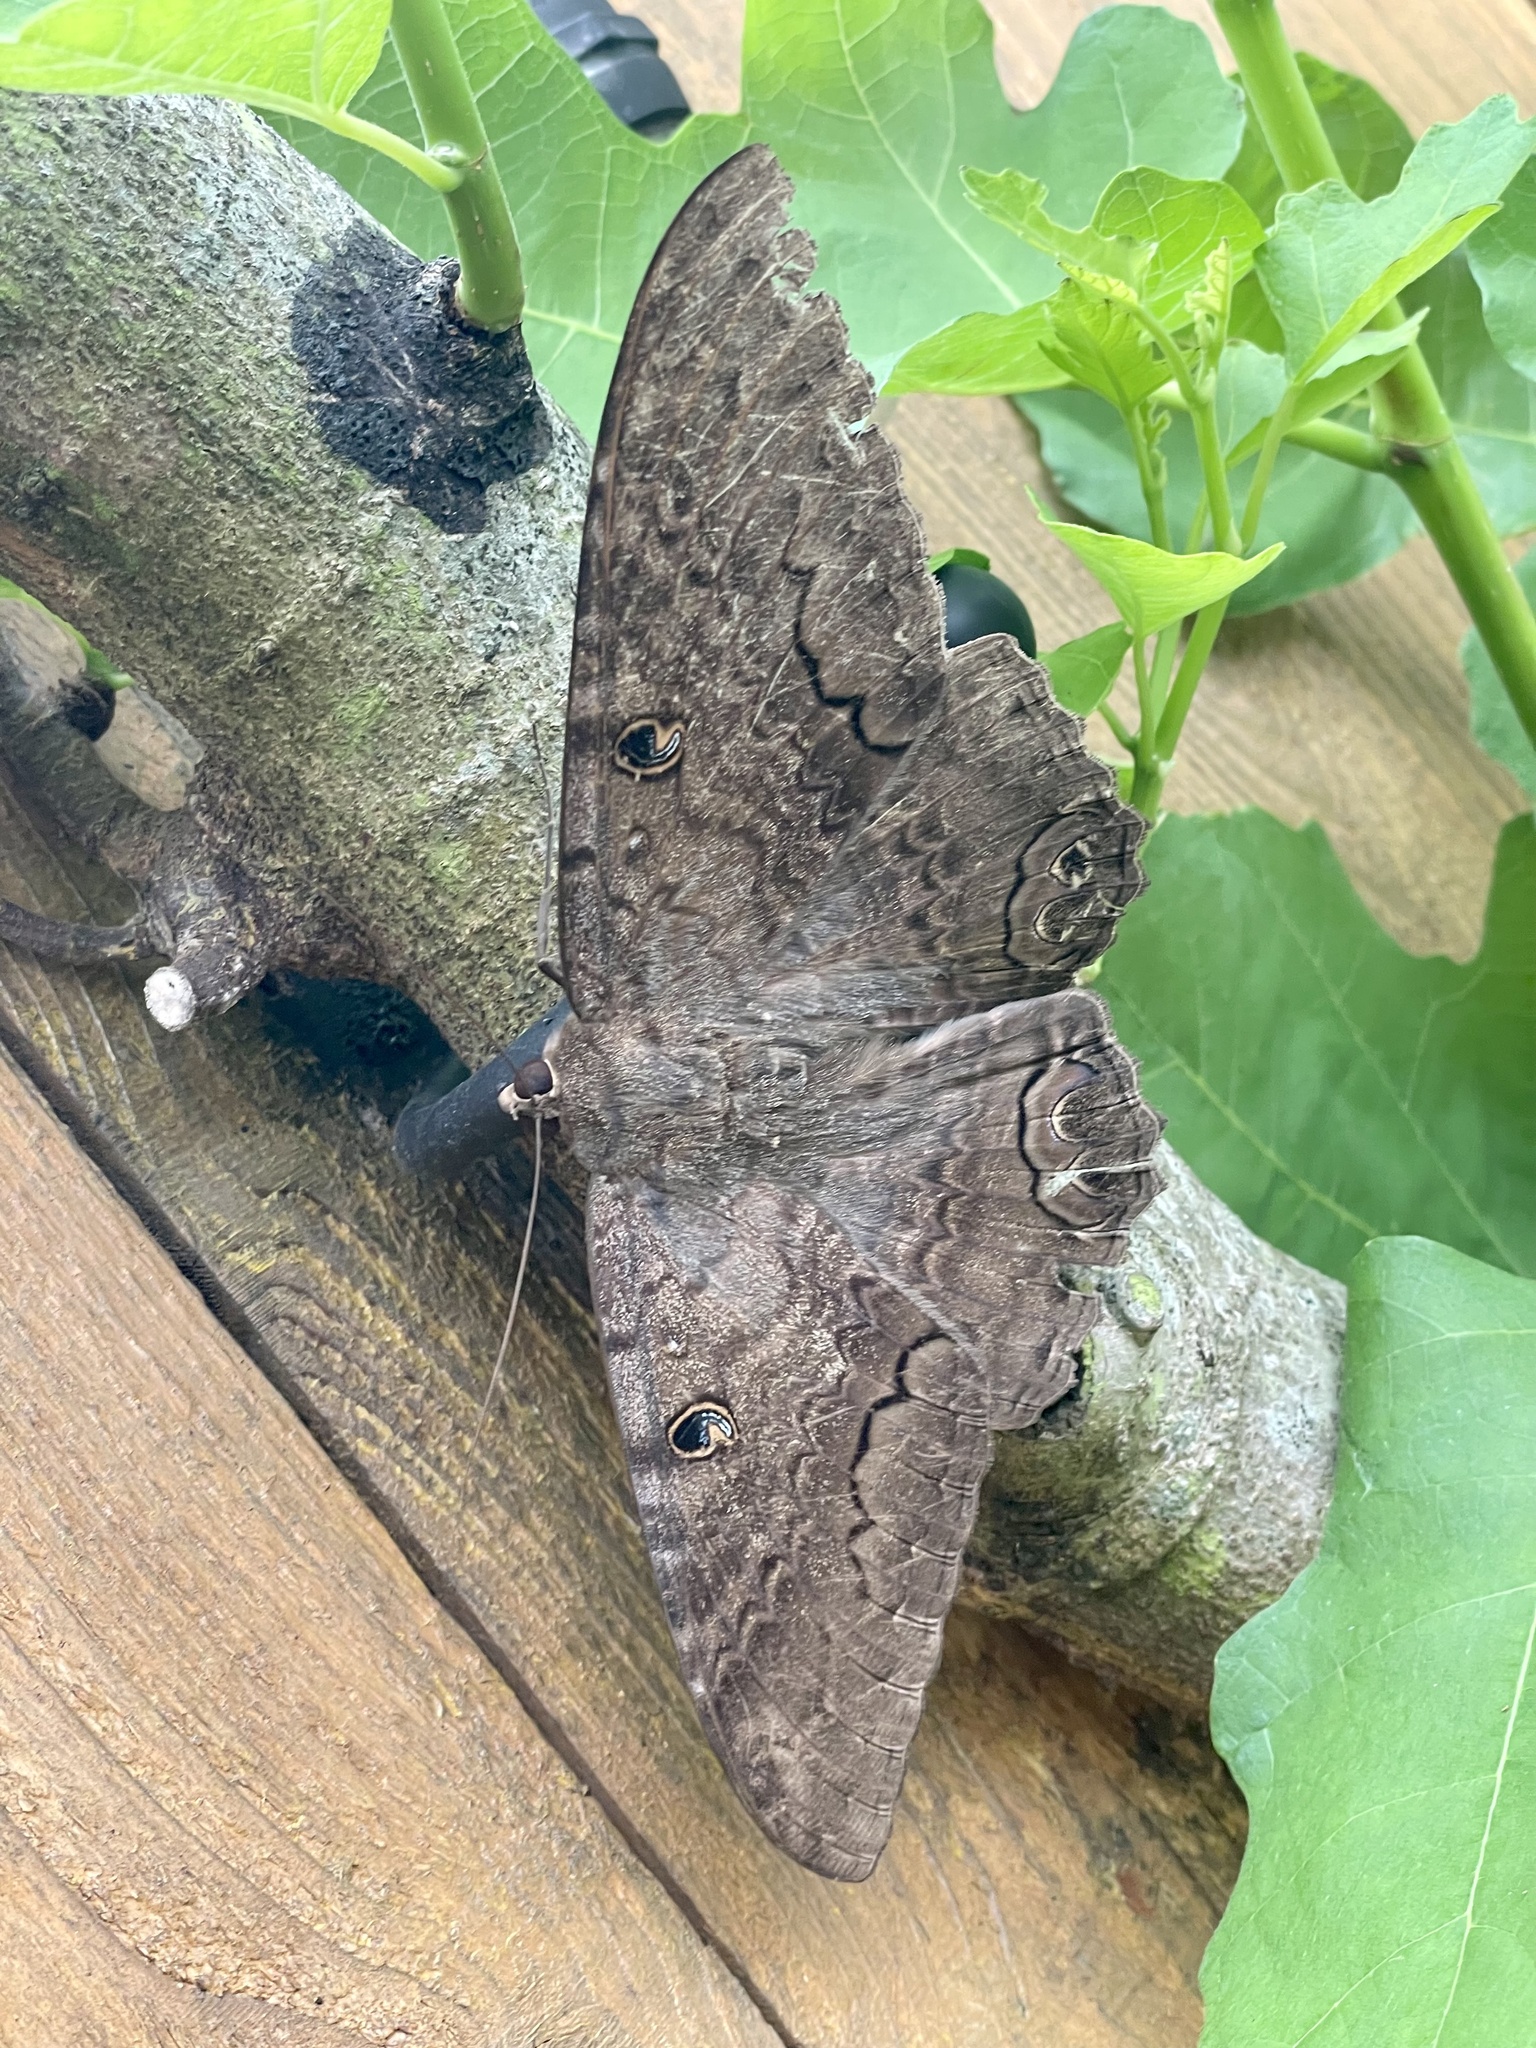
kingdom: Animalia
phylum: Arthropoda
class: Insecta
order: Lepidoptera
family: Erebidae
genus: Ascalapha
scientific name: Ascalapha odorata
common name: Black witch
